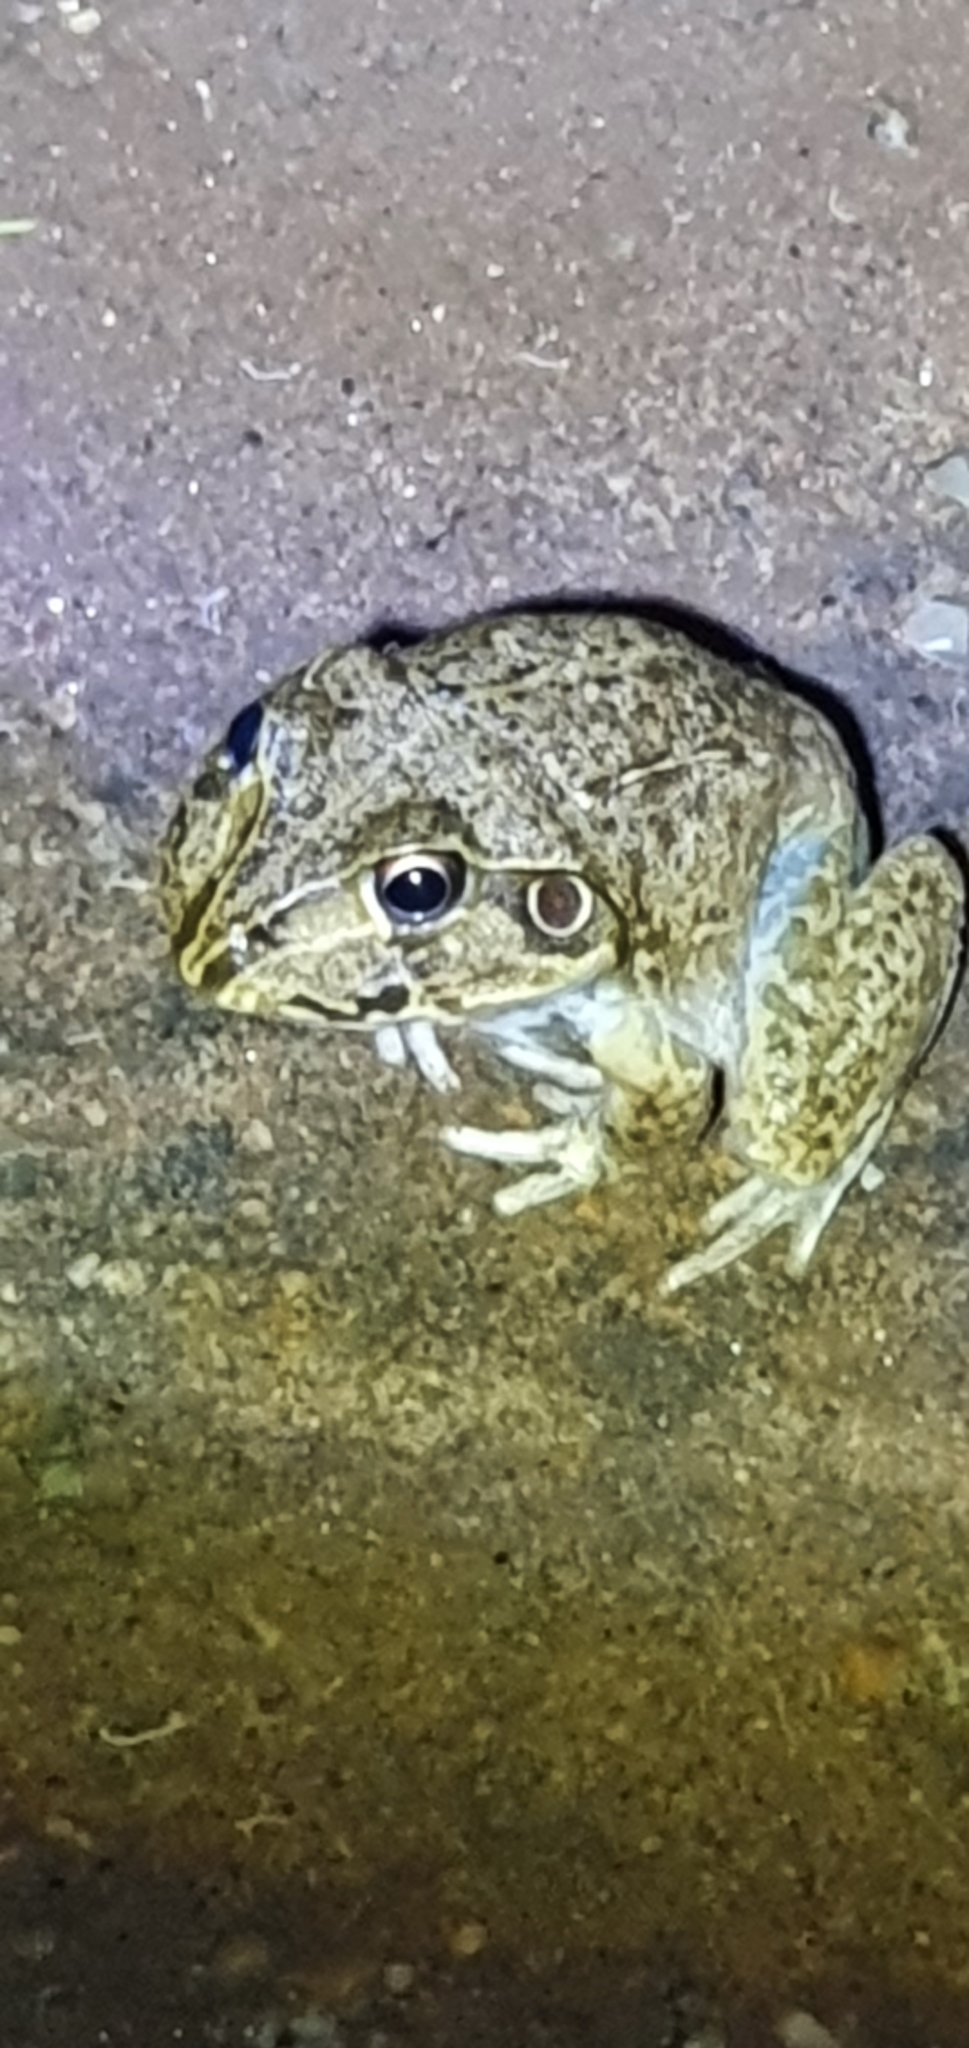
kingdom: Animalia
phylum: Chordata
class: Amphibia
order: Anura
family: Pelodryadidae
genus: Ranoidea
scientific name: Ranoidea novaehollandiae
